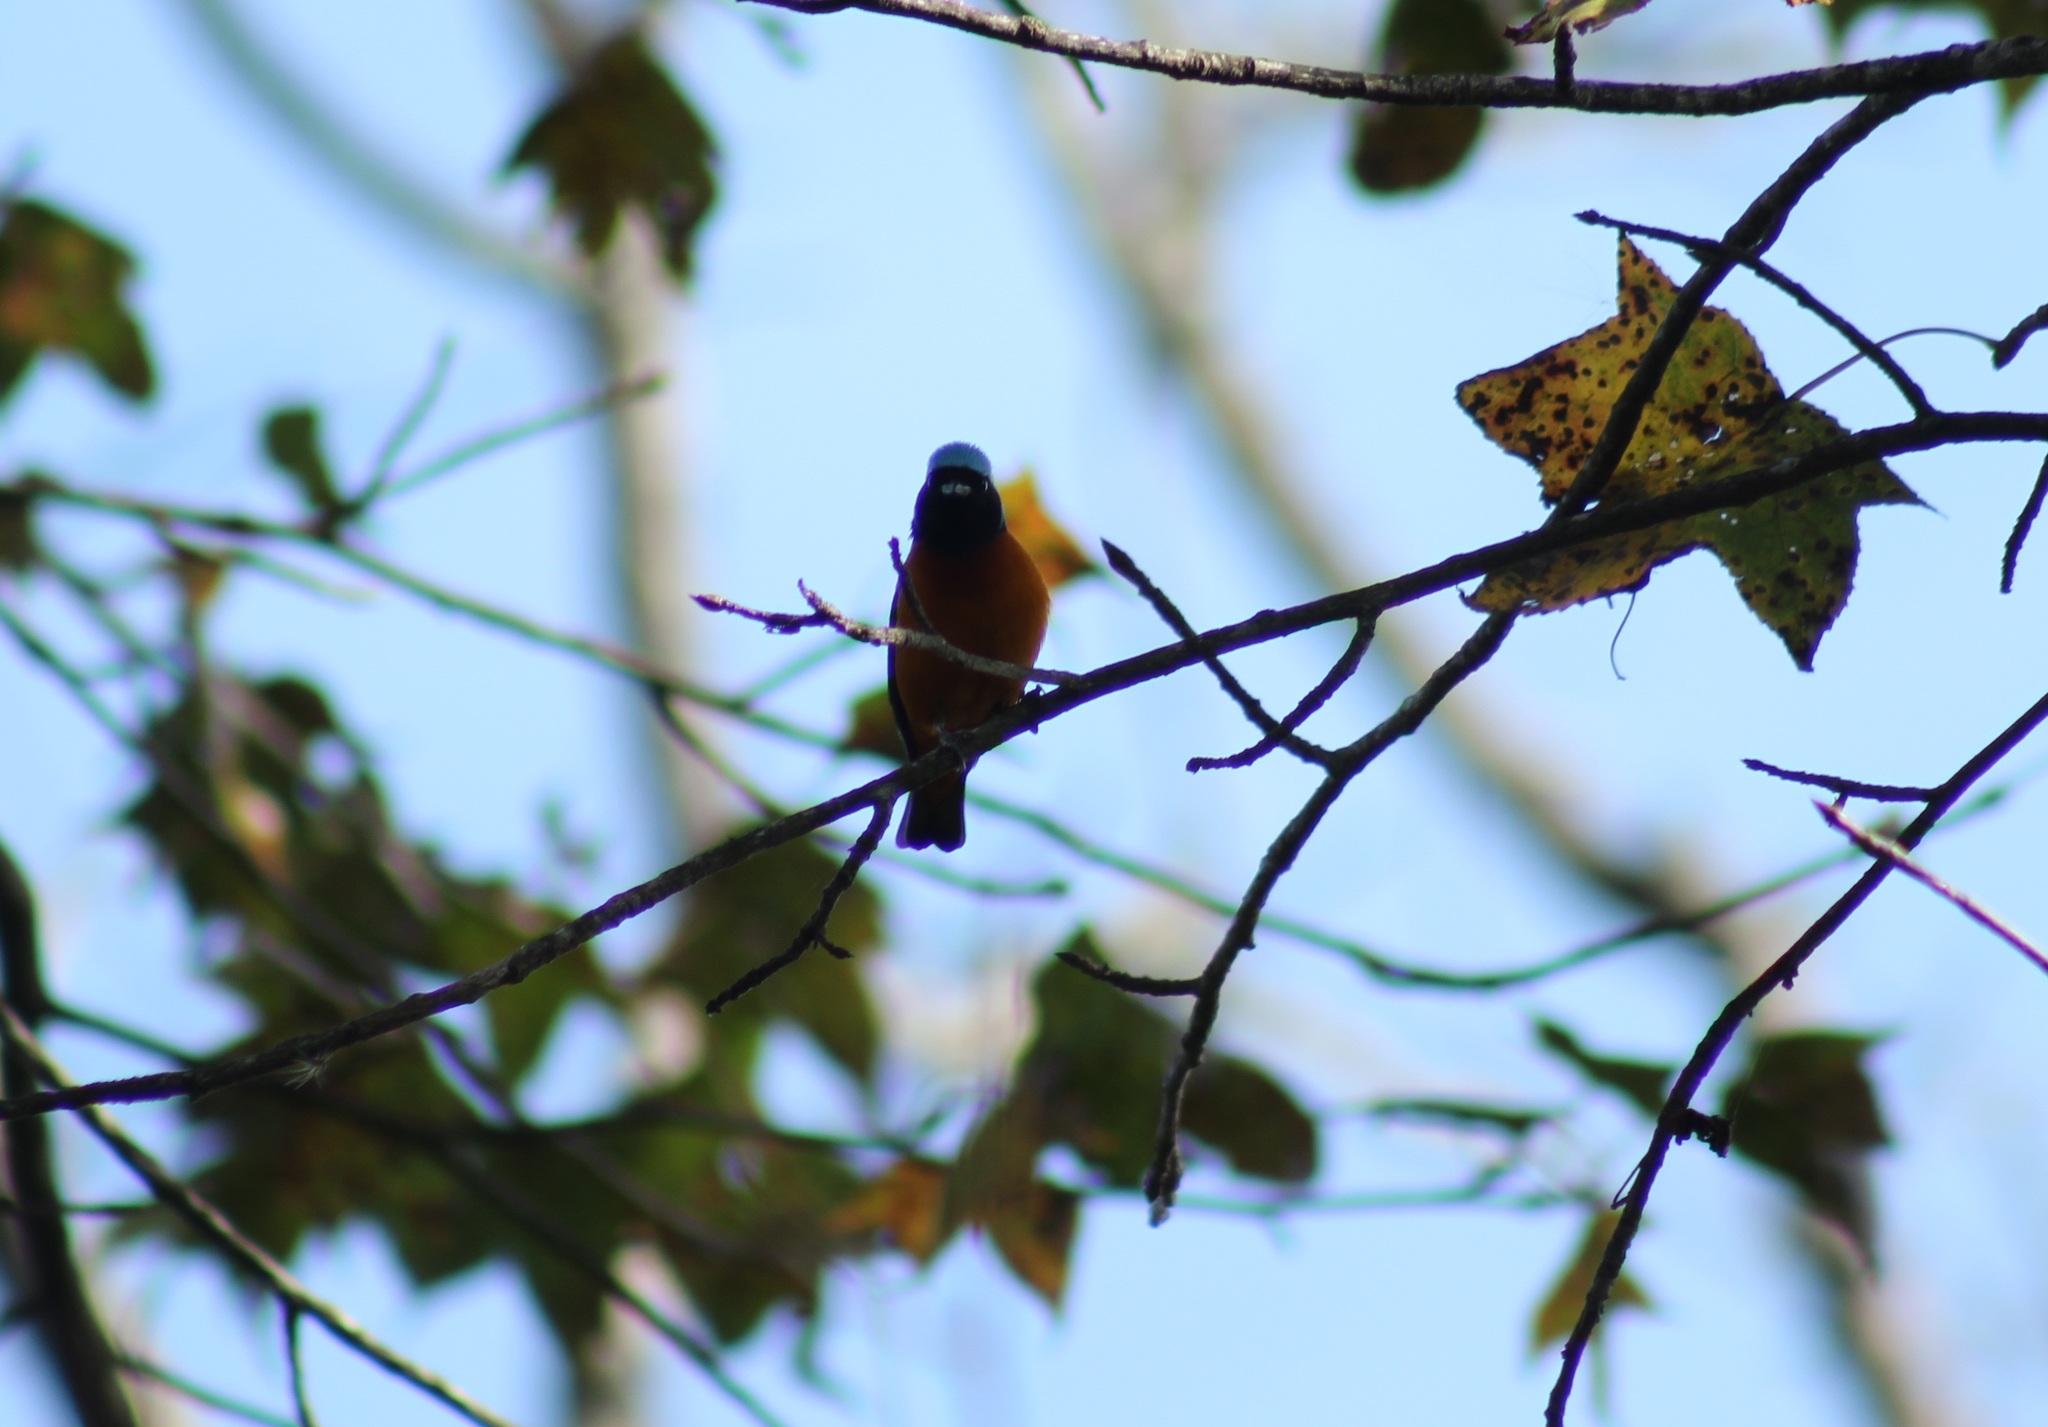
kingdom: Animalia
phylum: Chordata
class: Aves
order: Passeriformes
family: Fringillidae
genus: Euphonia
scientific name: Euphonia elegantissima
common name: Elegant euphonia
